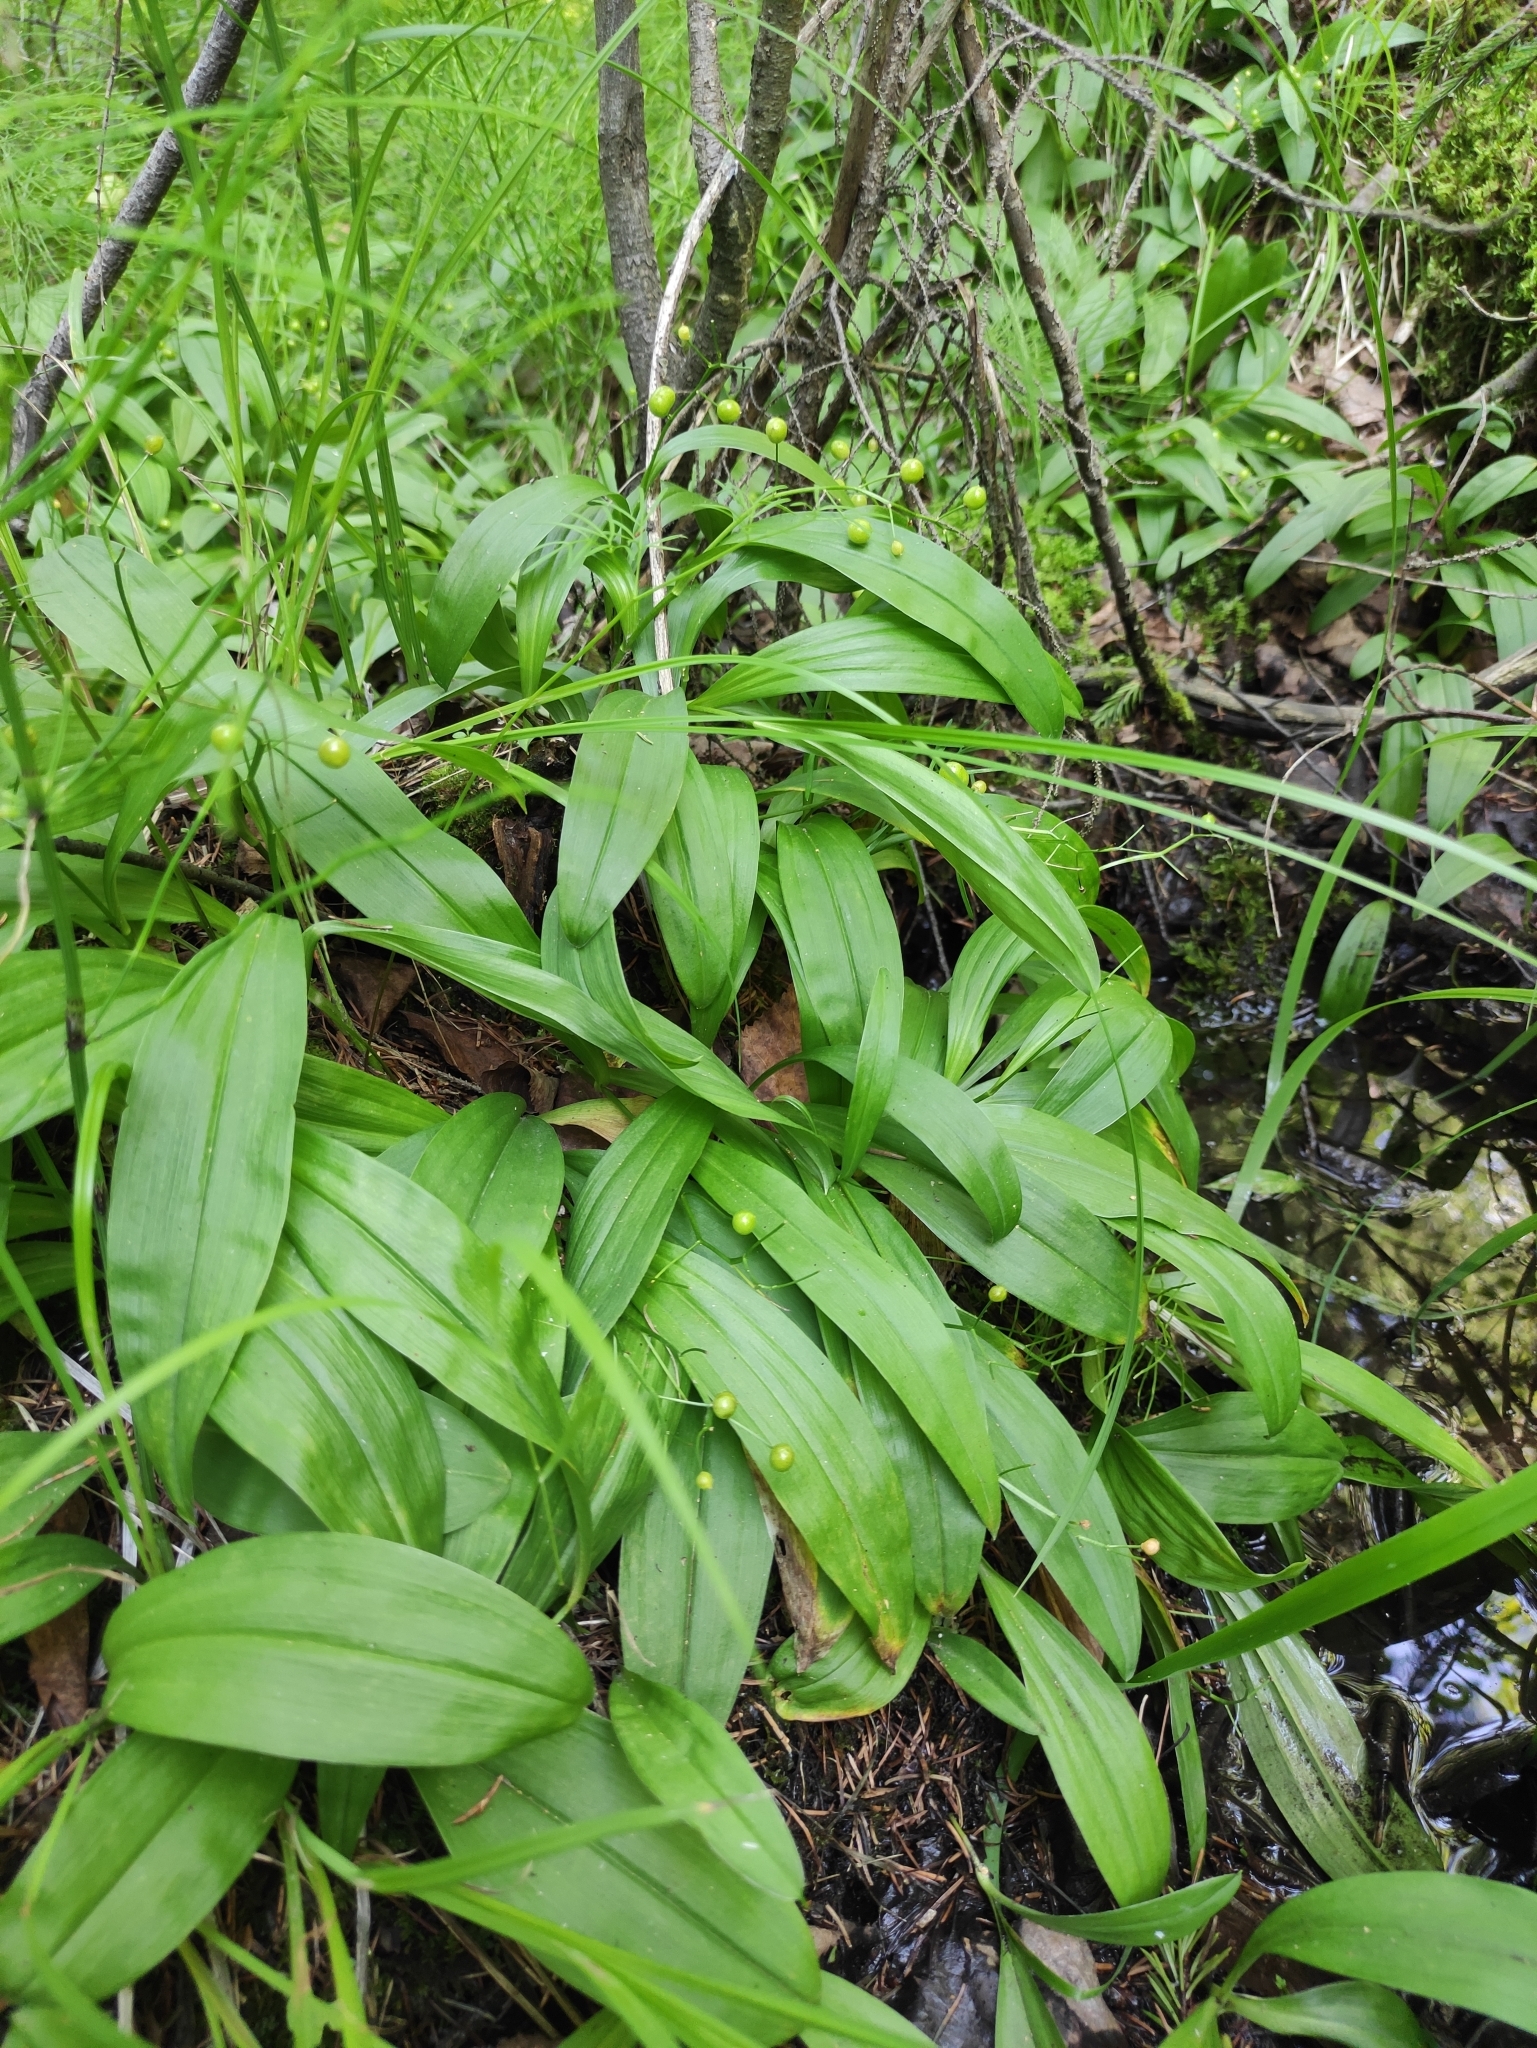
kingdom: Plantae
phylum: Tracheophyta
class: Liliopsida
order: Asparagales
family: Asparagaceae
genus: Maianthemum
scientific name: Maianthemum trifolium
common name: Swamp false solomon's seal
